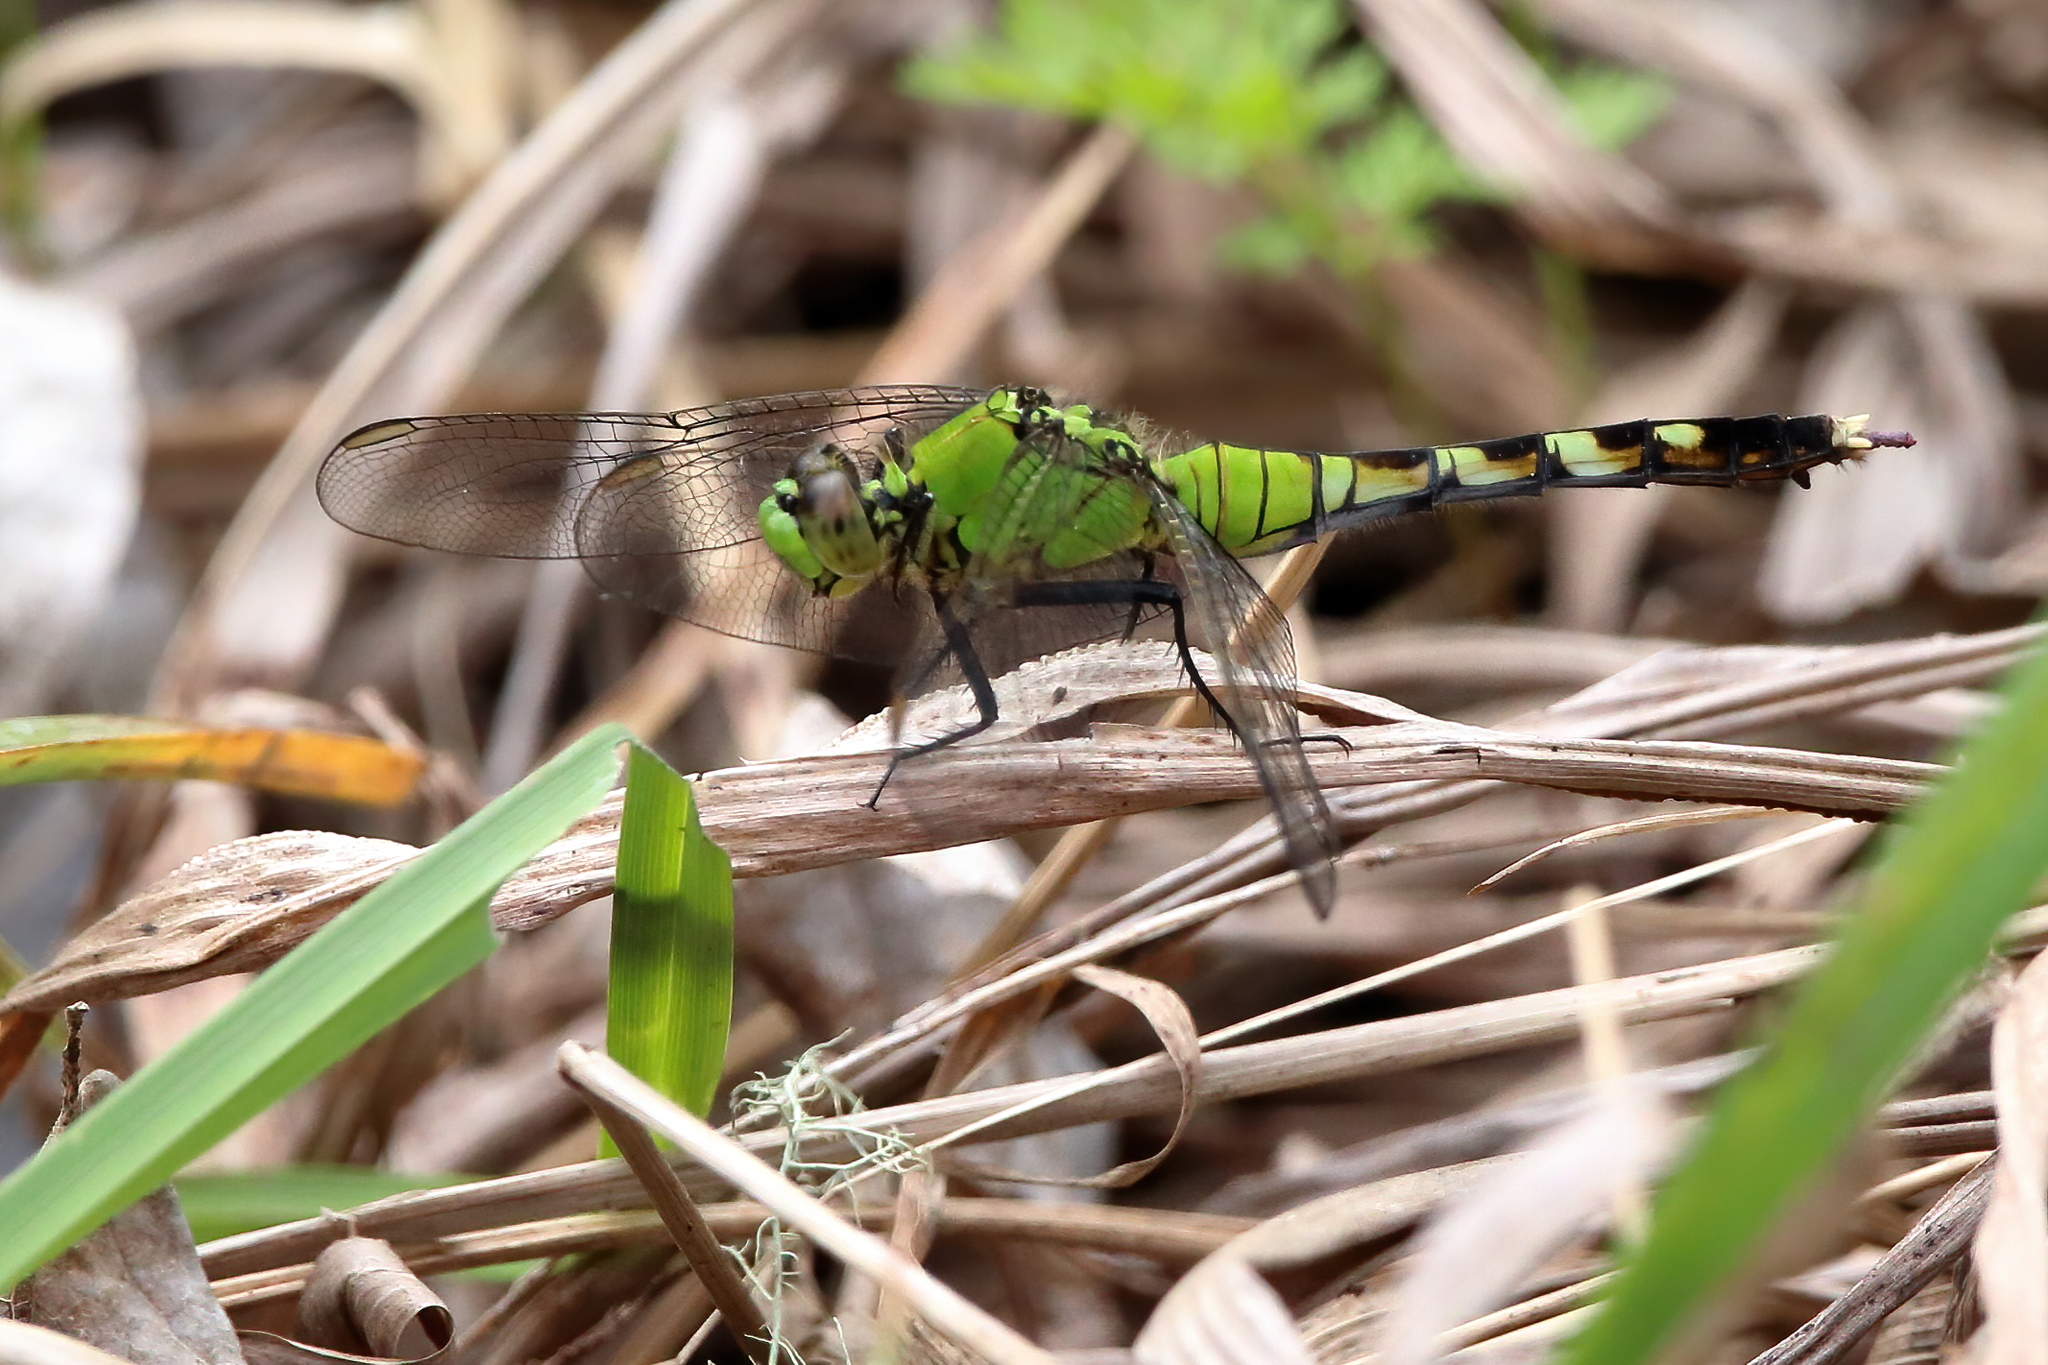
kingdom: Animalia
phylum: Arthropoda
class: Insecta
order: Odonata
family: Libellulidae
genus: Erythemis
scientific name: Erythemis simplicicollis
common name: Eastern pondhawk
